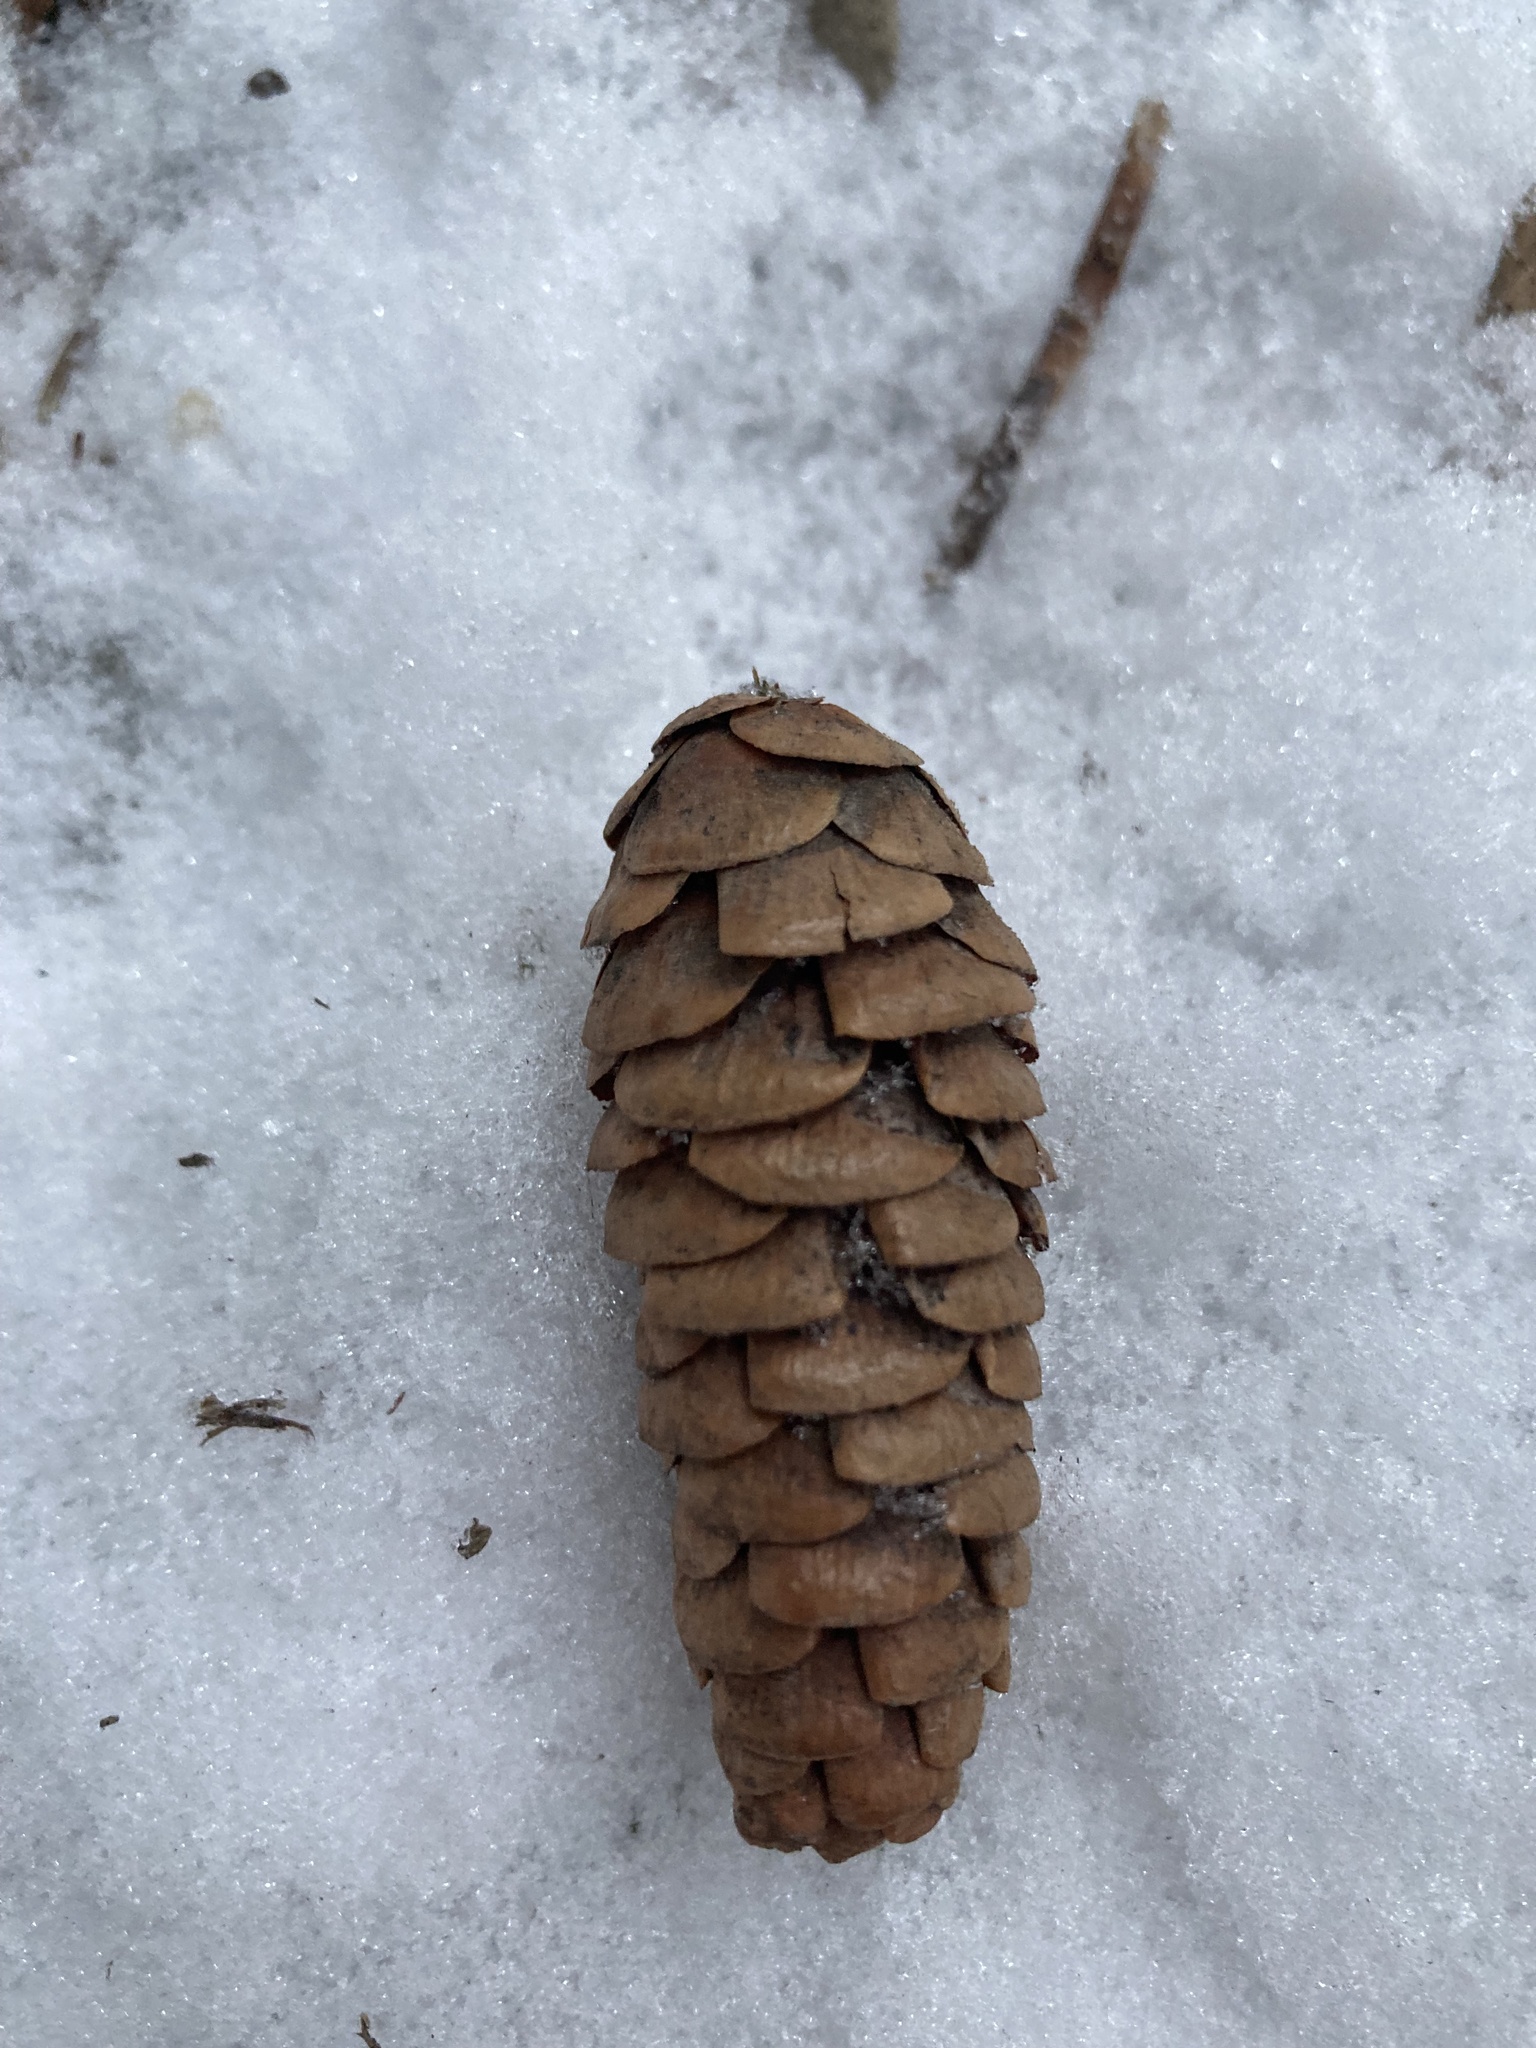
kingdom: Plantae
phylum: Tracheophyta
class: Pinopsida
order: Pinales
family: Pinaceae
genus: Picea
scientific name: Picea glauca
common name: White spruce
